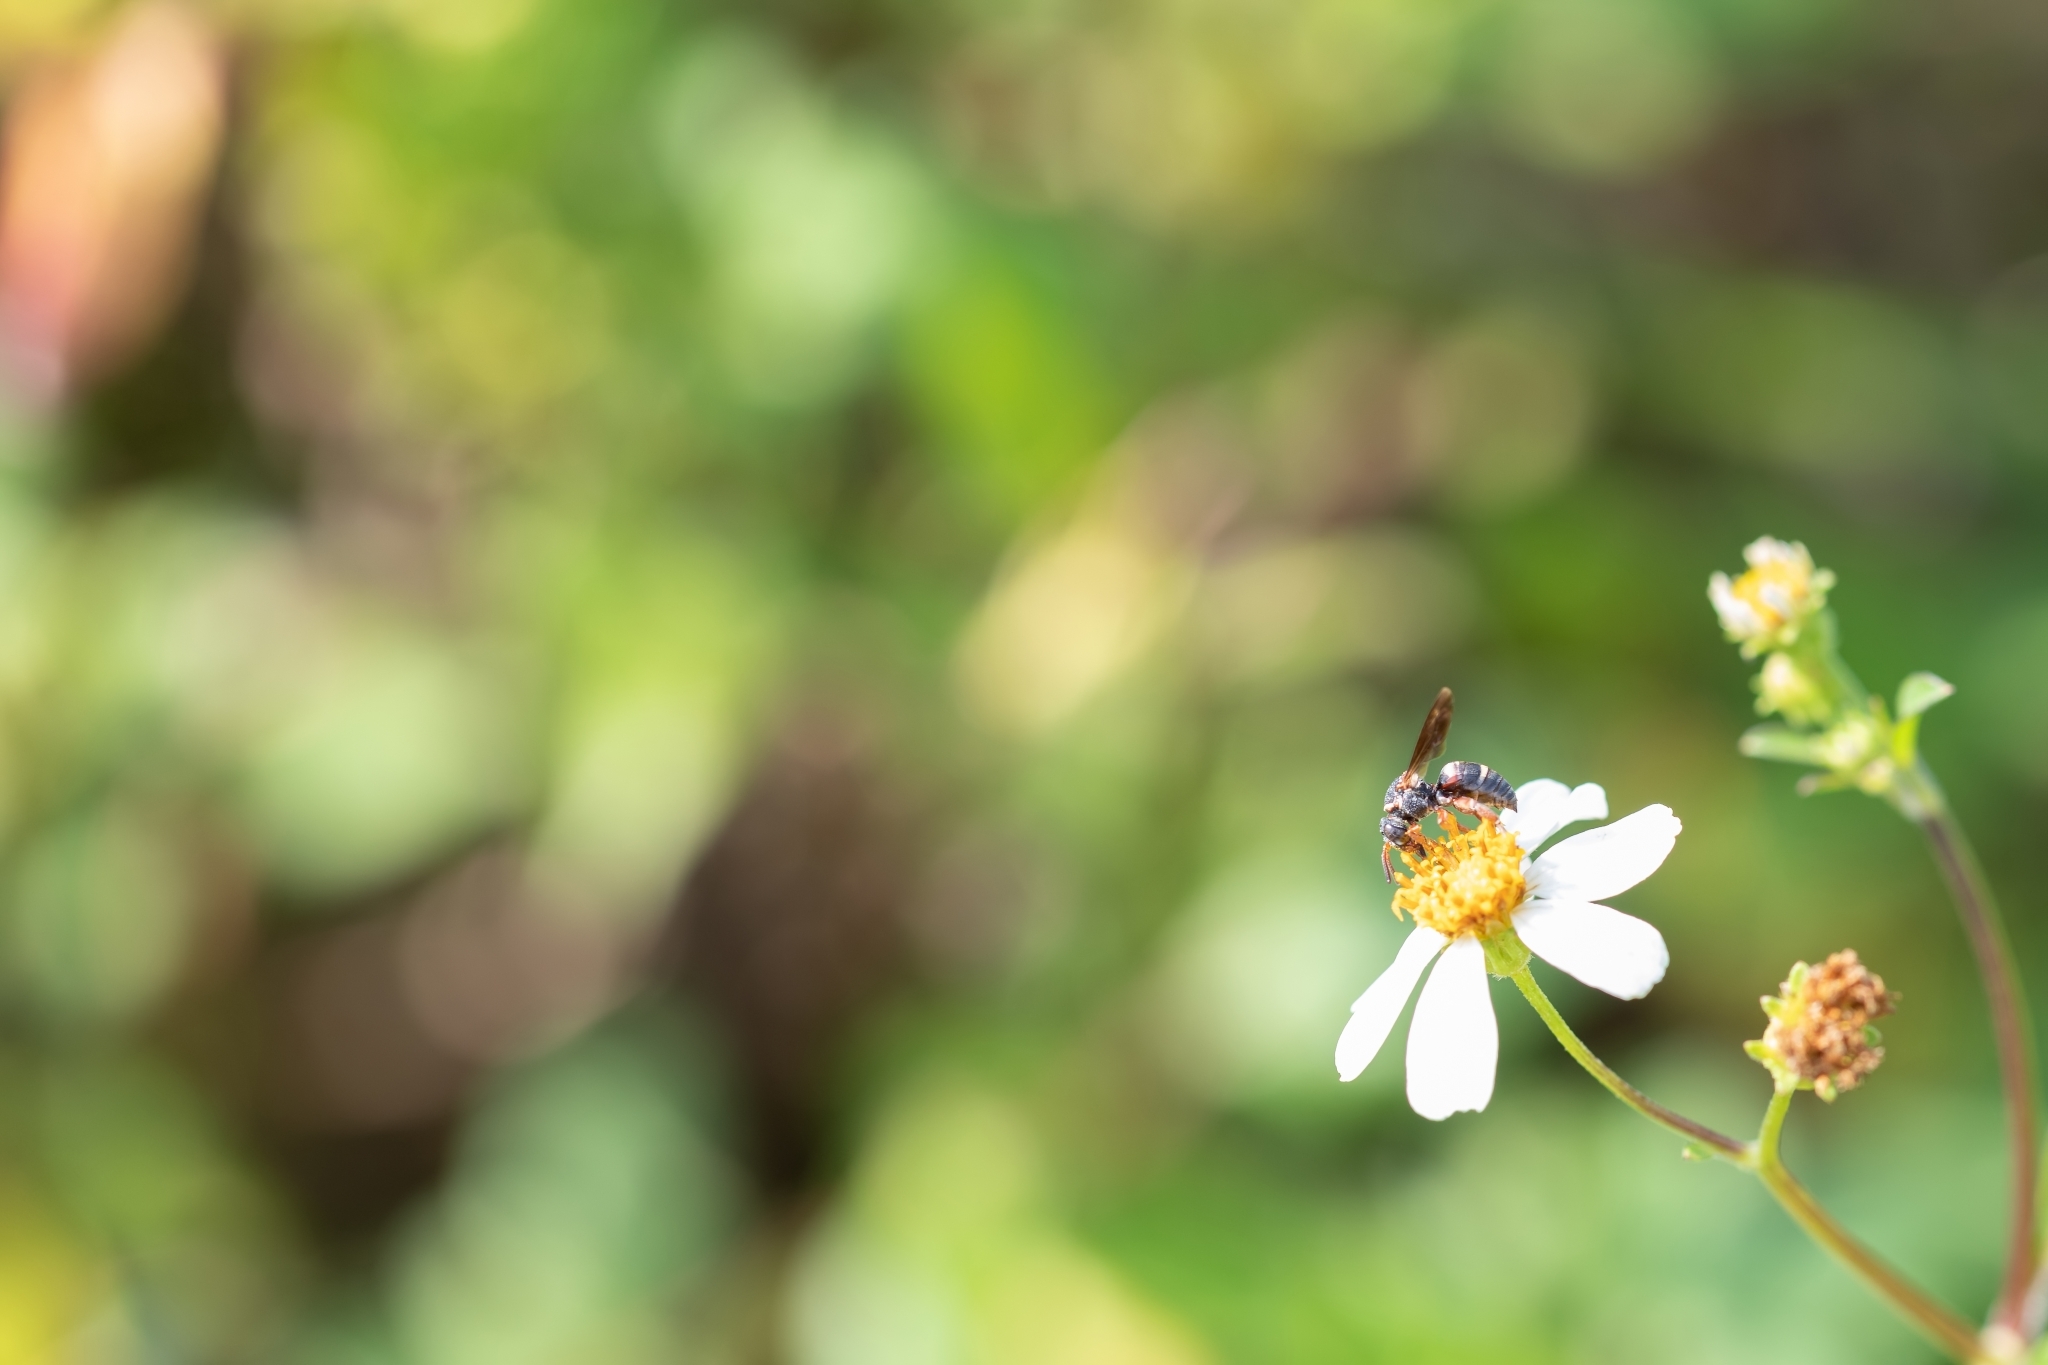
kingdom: Animalia
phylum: Arthropoda
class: Insecta
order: Hymenoptera
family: Apidae
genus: Epeolus
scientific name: Epeolus bifasciatus
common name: Two-banded cellophane-cuckoo
